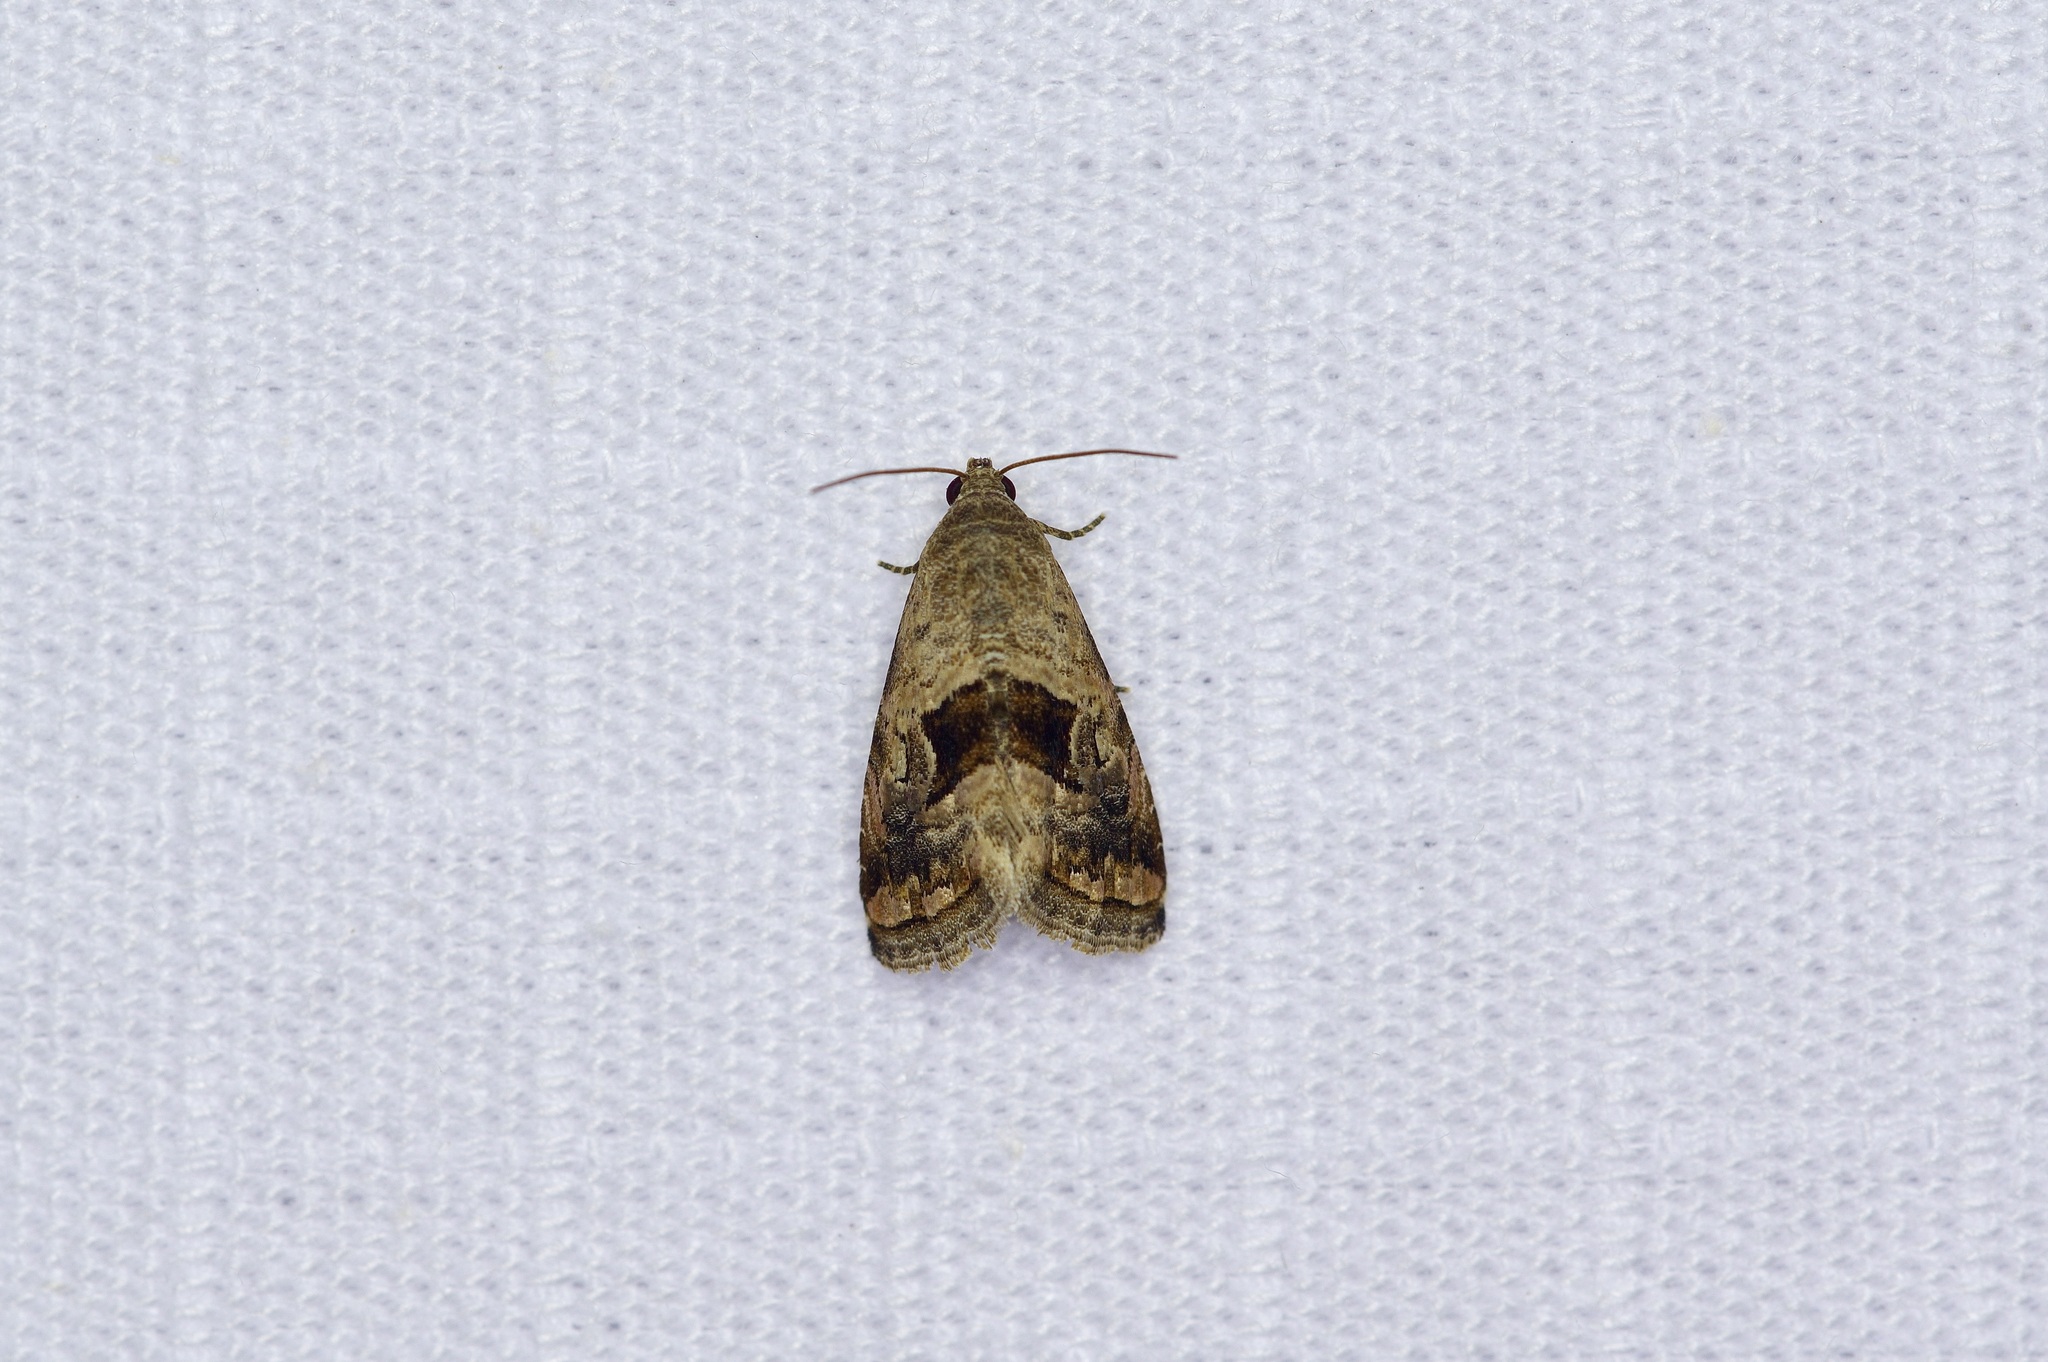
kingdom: Animalia
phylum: Arthropoda
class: Insecta
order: Lepidoptera
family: Noctuidae
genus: Tripudia
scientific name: Tripudia quadrifera
